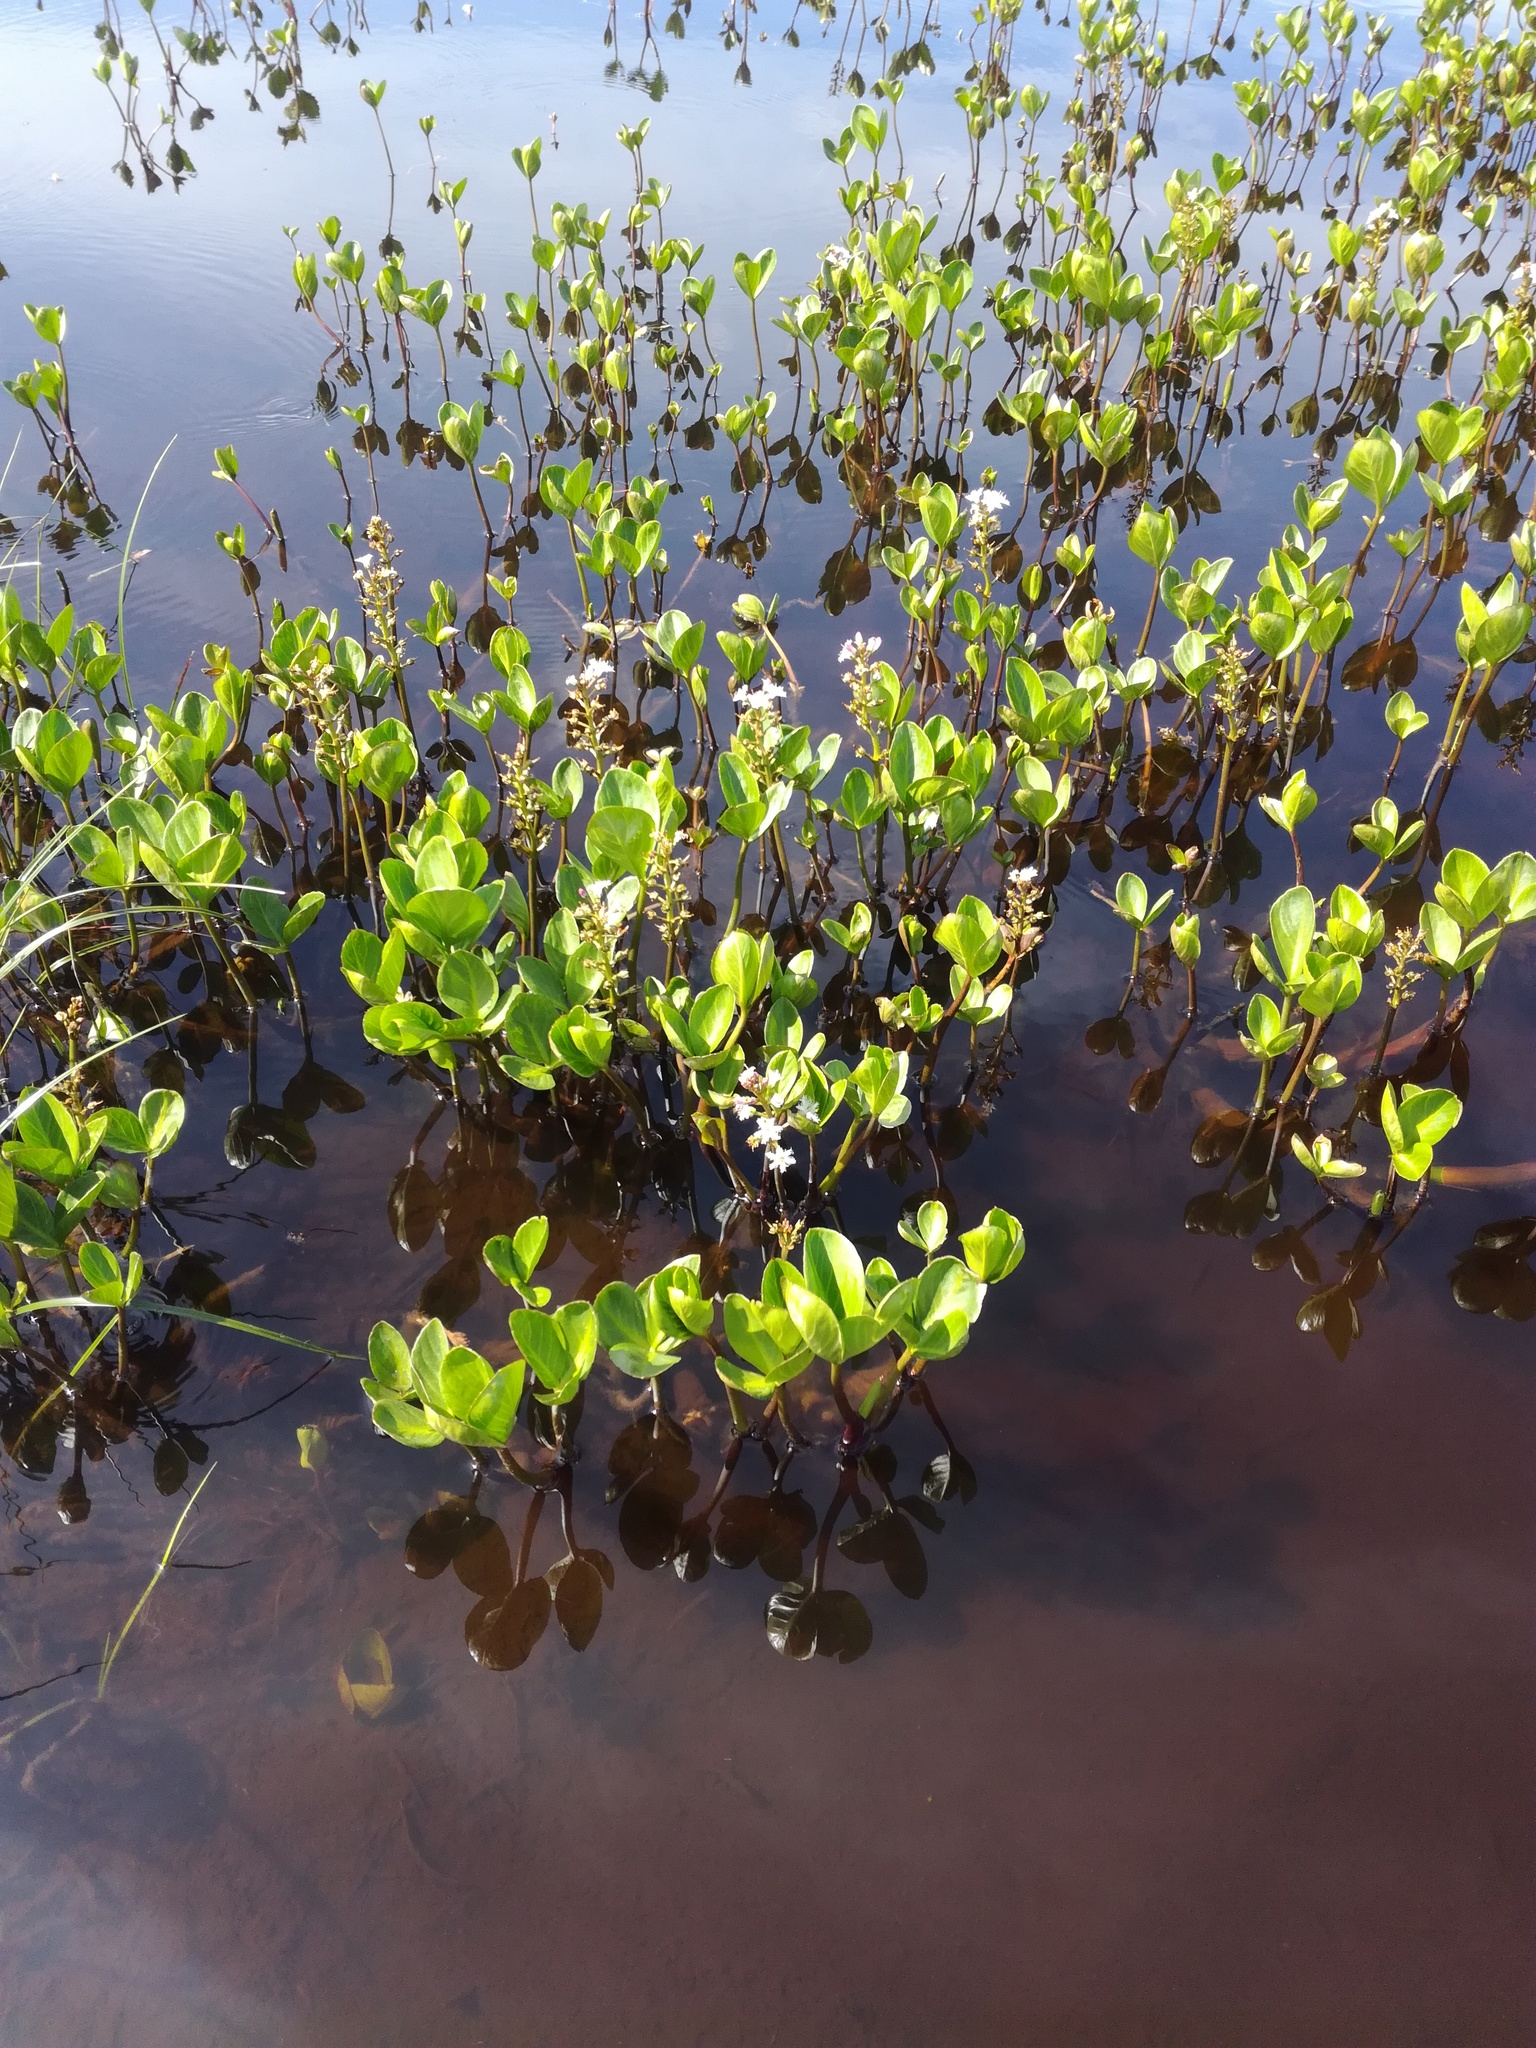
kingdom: Plantae
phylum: Tracheophyta
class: Magnoliopsida
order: Asterales
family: Menyanthaceae
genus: Menyanthes
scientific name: Menyanthes trifoliata
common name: Bogbean
